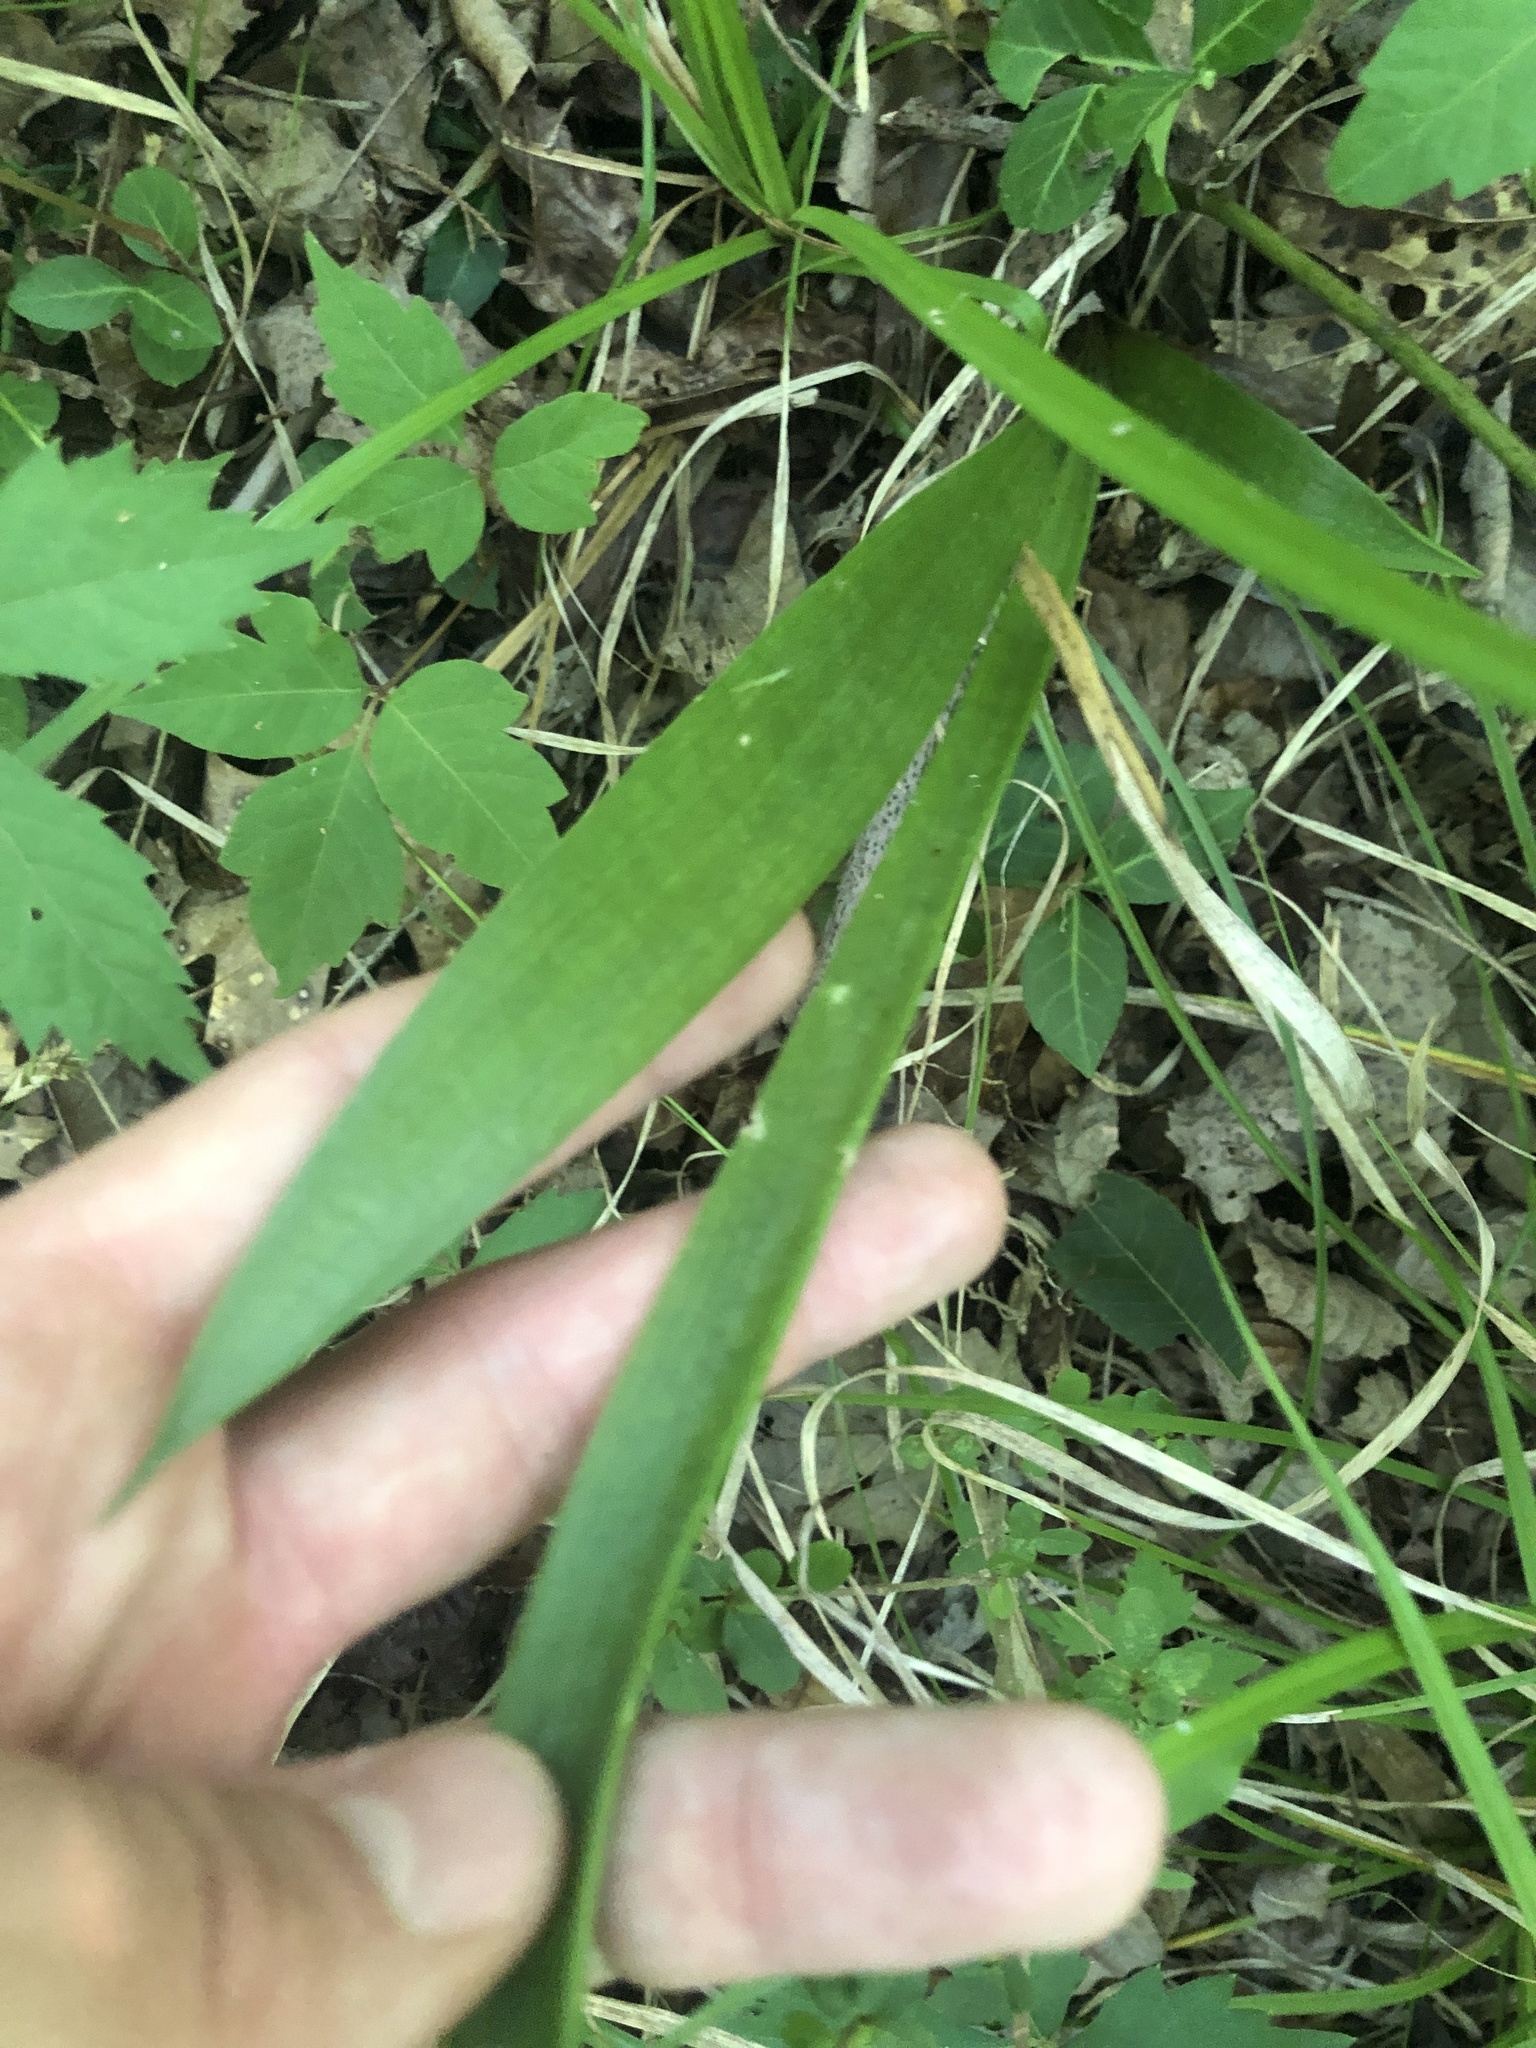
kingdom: Plantae
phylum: Tracheophyta
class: Liliopsida
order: Asparagales
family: Asparagaceae
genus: Agave
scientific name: Agave virginica
